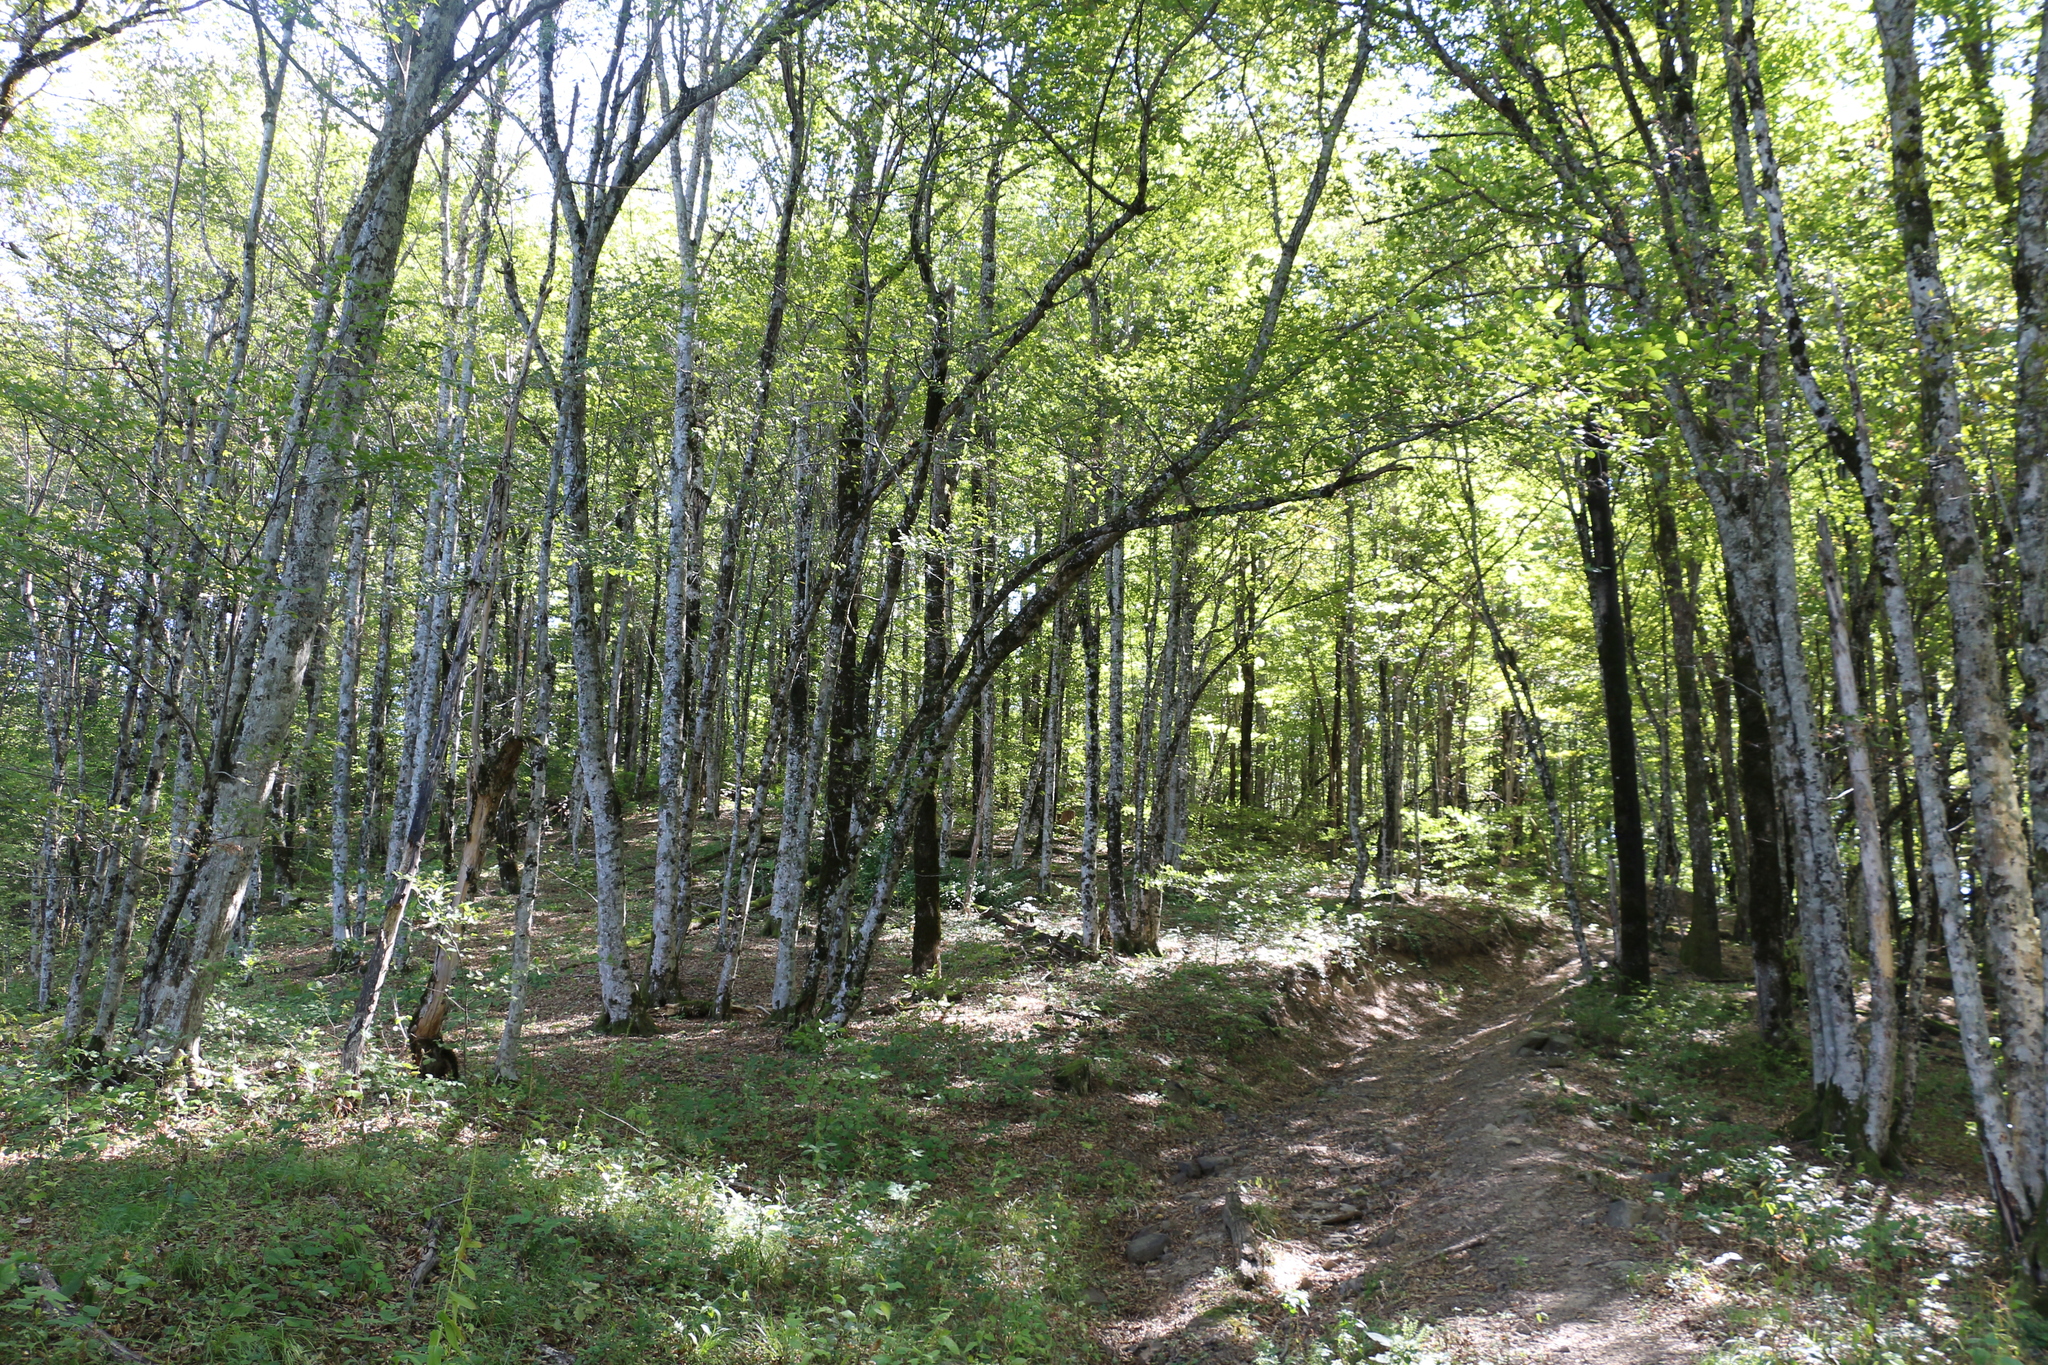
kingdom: Plantae
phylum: Tracheophyta
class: Magnoliopsida
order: Fagales
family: Betulaceae
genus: Carpinus
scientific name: Carpinus orientalis
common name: Eastern hornbeam
